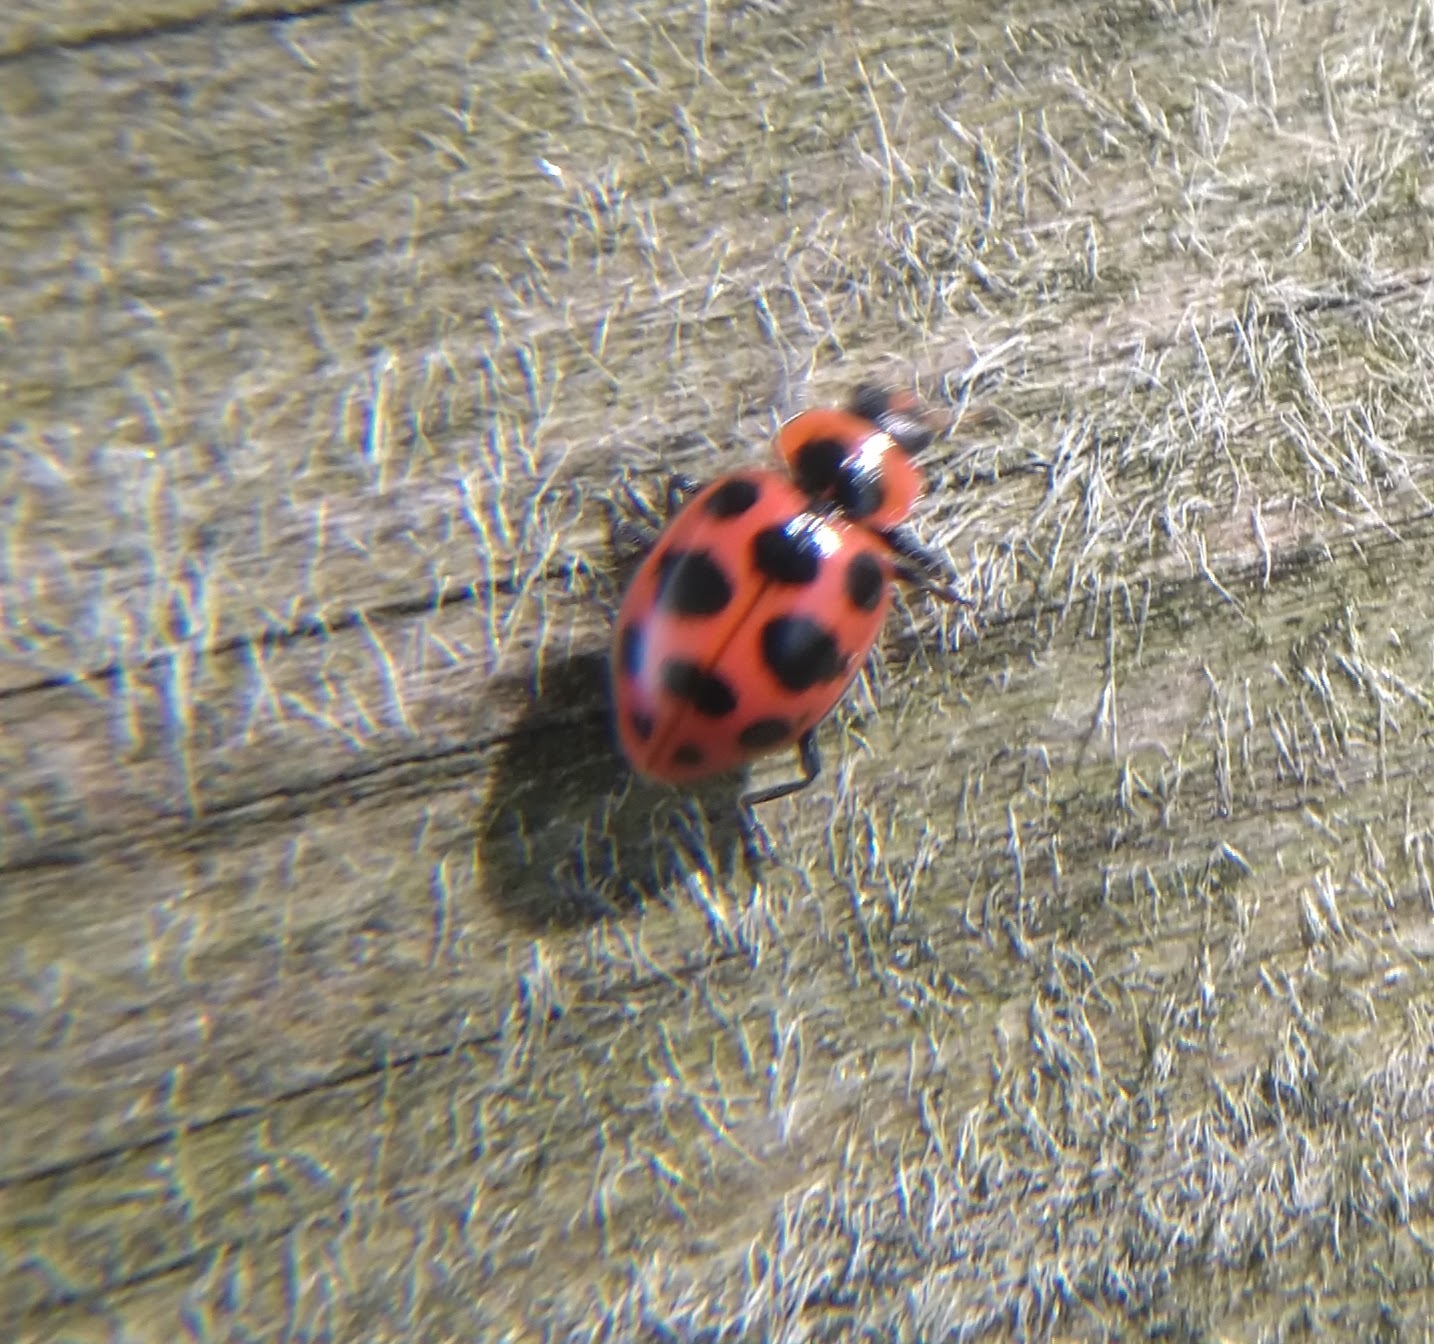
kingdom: Animalia
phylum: Arthropoda
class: Insecta
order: Coleoptera
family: Coccinellidae
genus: Coleomegilla
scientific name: Coleomegilla maculata
